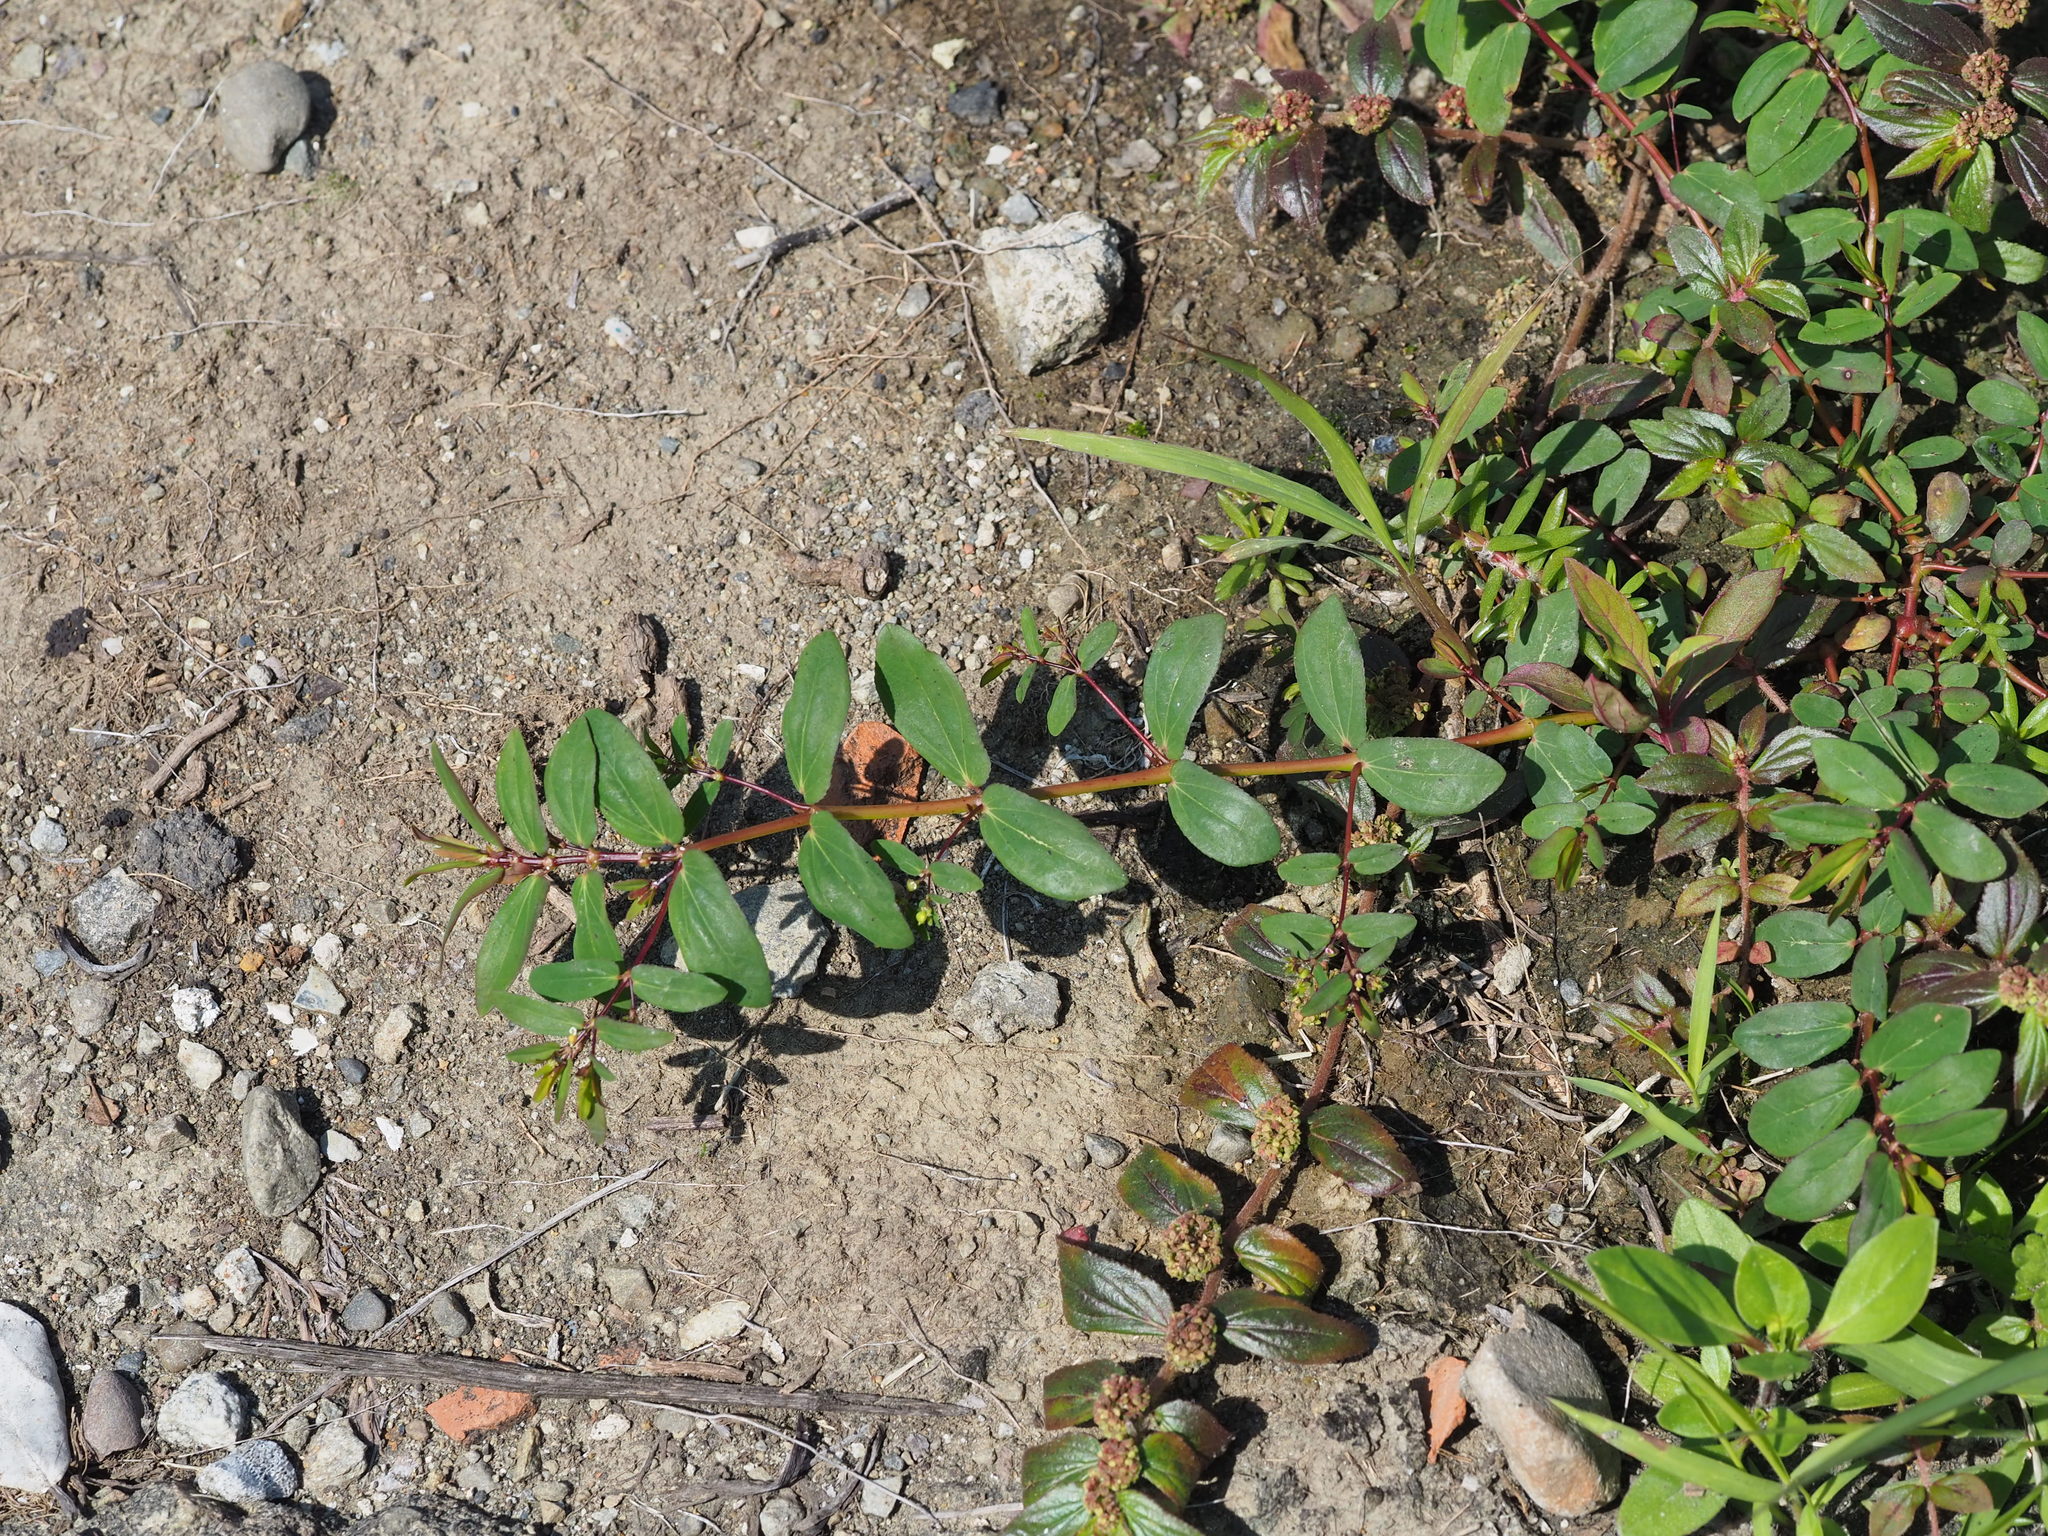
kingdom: Plantae
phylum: Tracheophyta
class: Magnoliopsida
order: Malpighiales
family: Euphorbiaceae
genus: Euphorbia
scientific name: Euphorbia hyssopifolia
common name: Hyssopleaf sandmat
